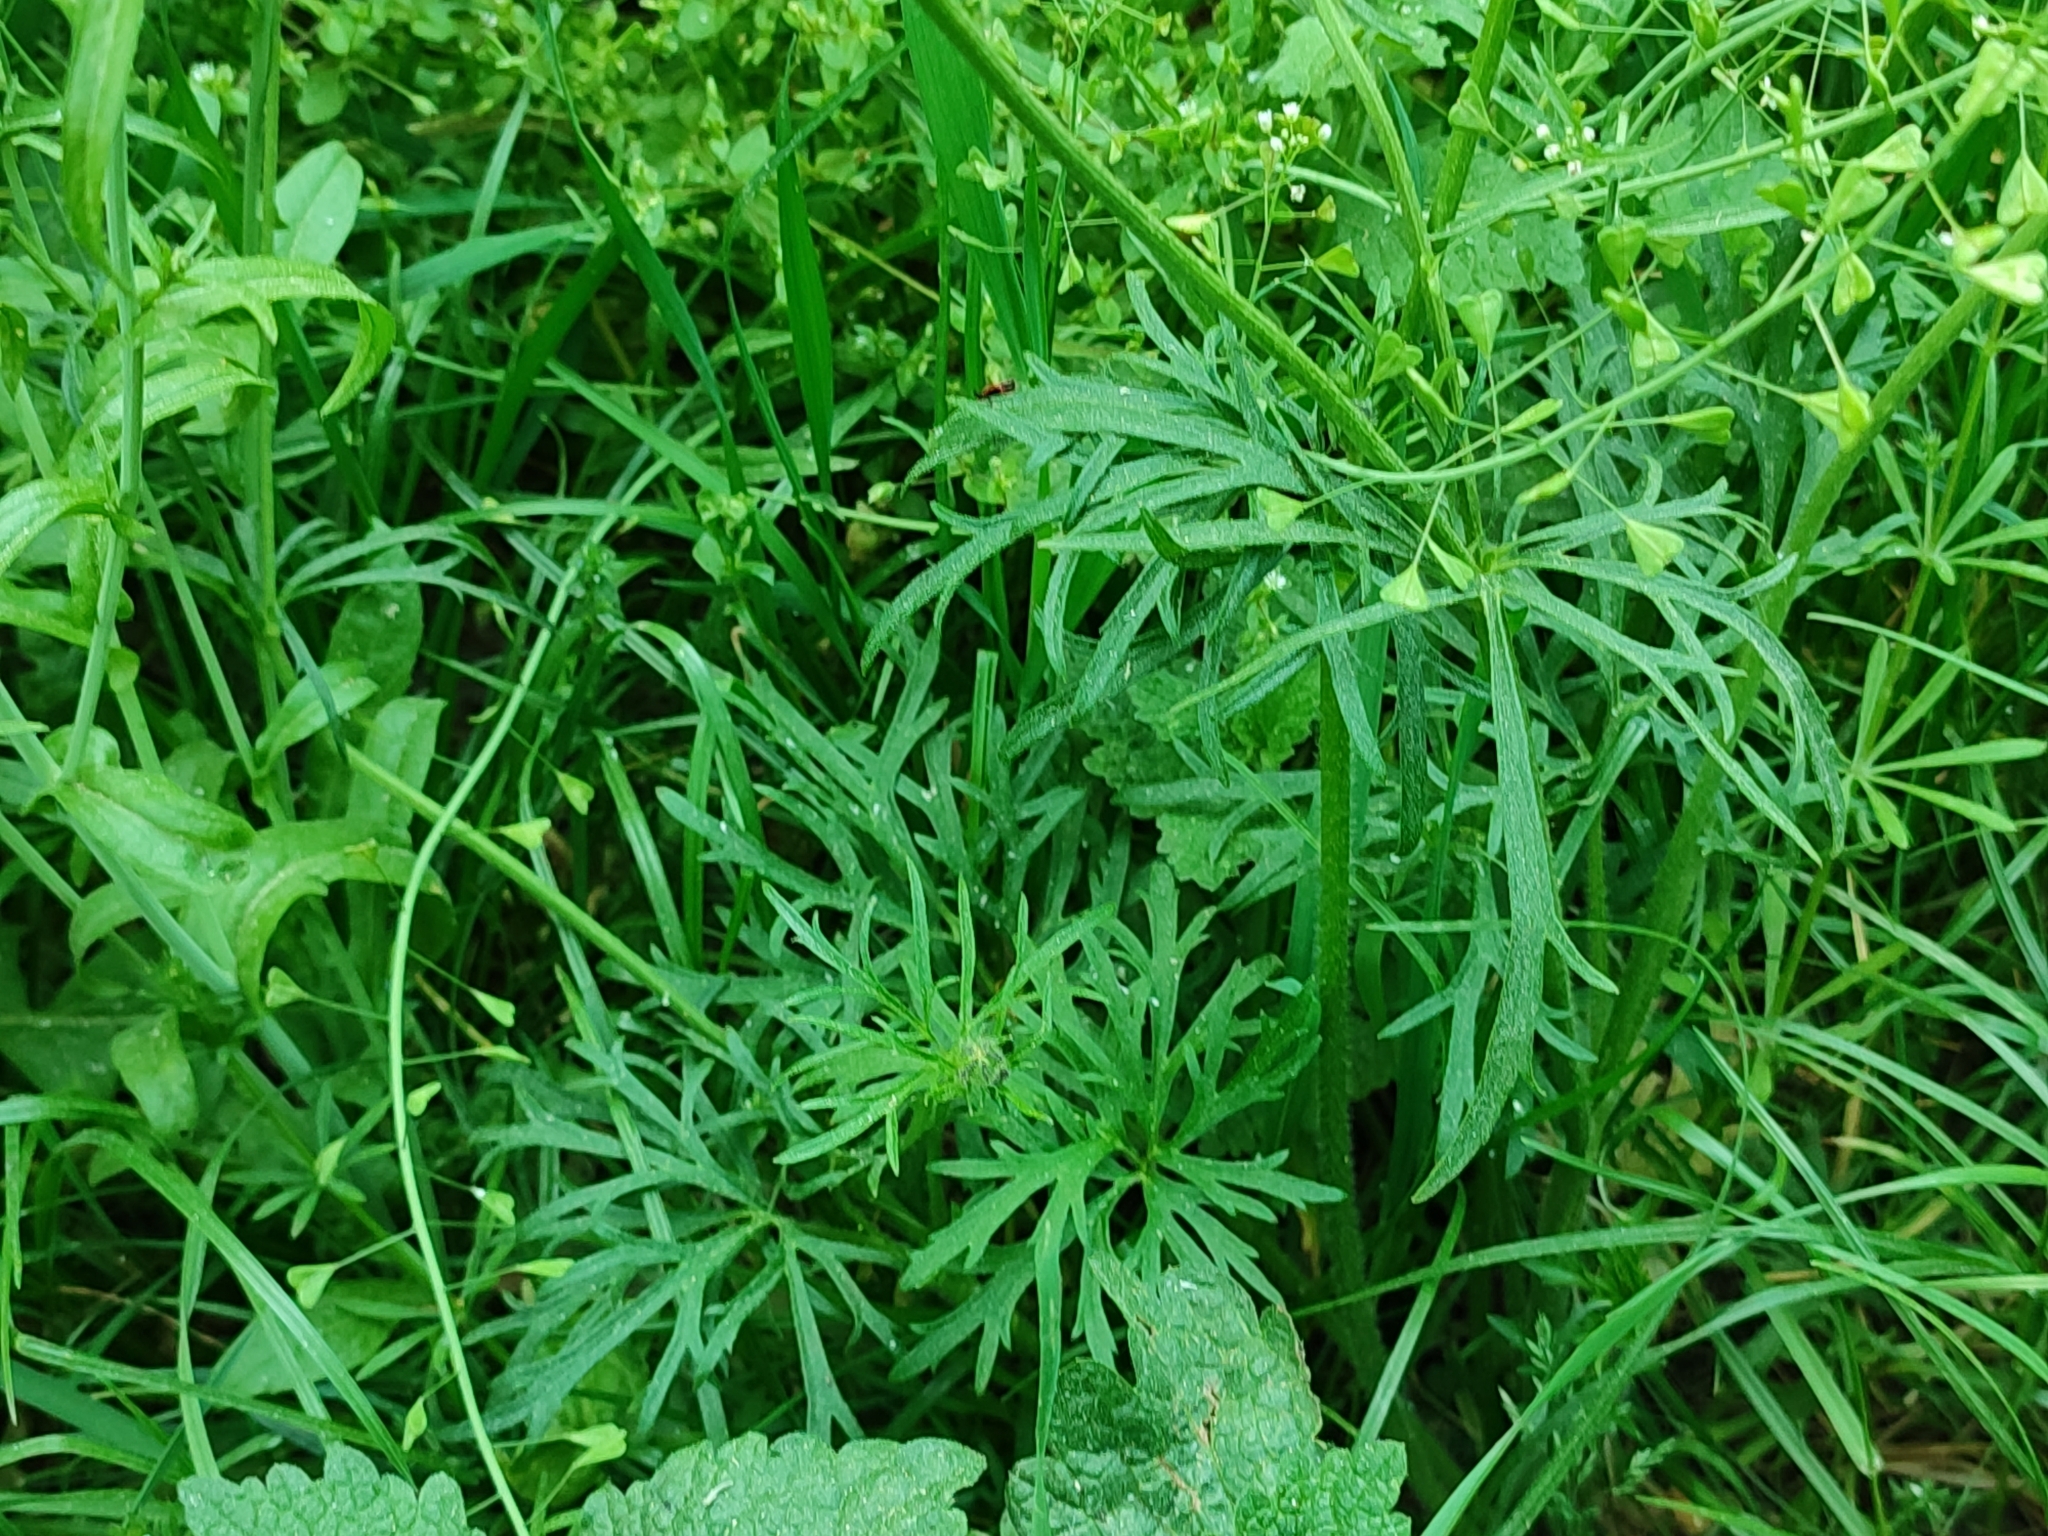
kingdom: Plantae
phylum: Tracheophyta
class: Magnoliopsida
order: Ranunculales
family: Ranunculaceae
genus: Ranunculus
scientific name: Ranunculus polyanthemos
